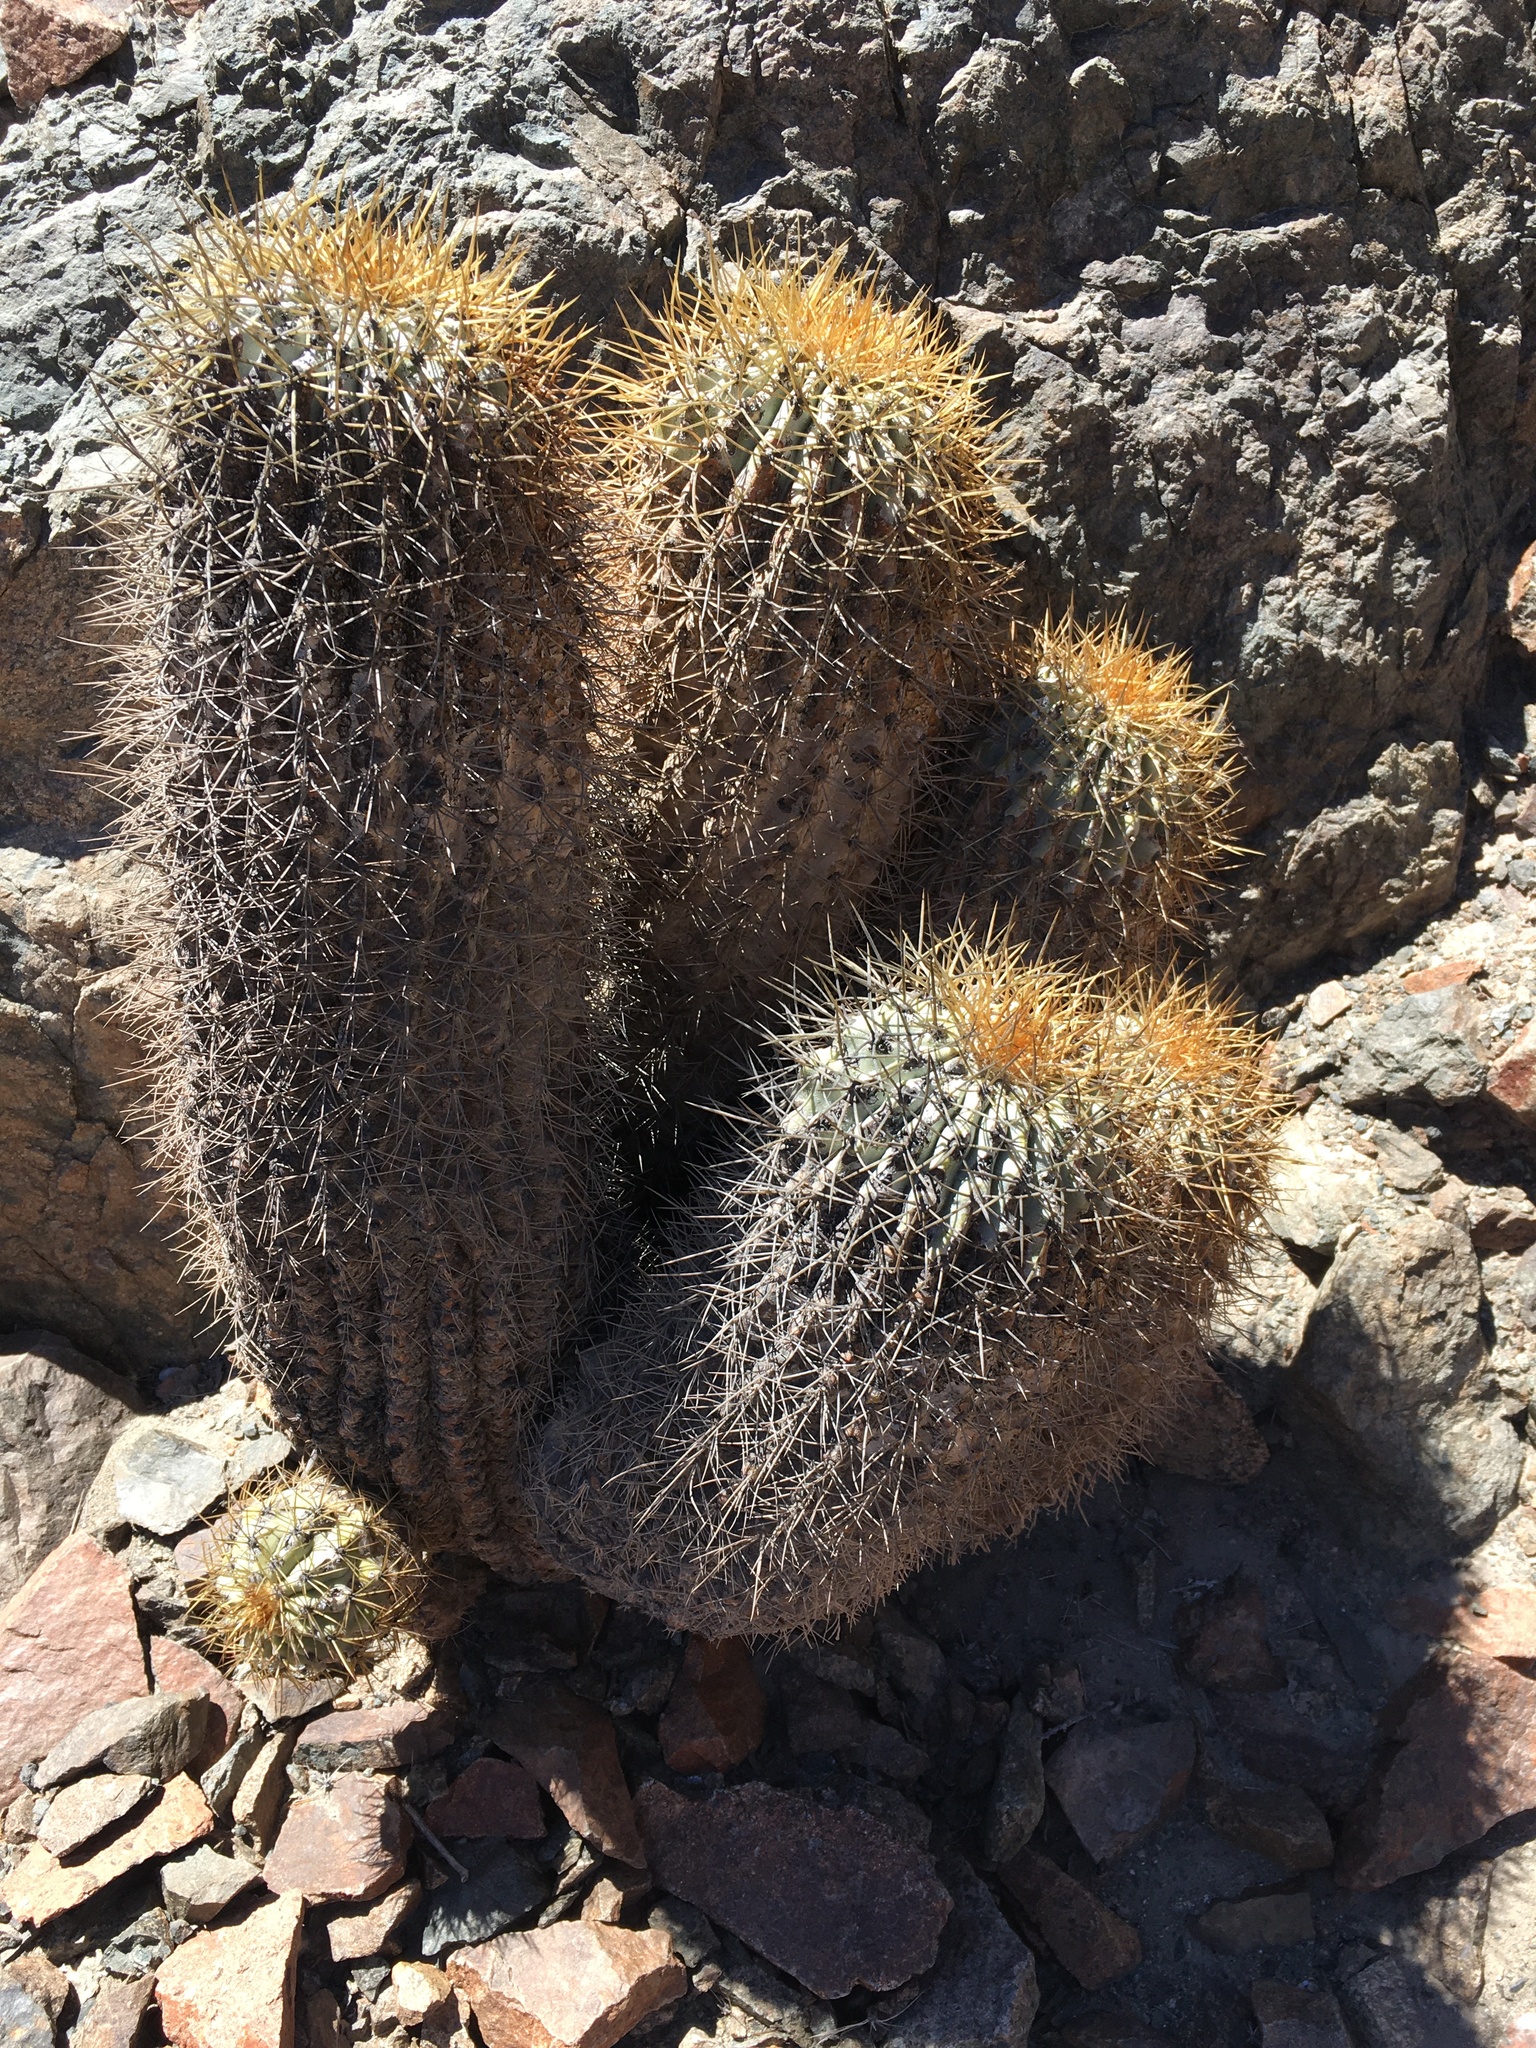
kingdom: Plantae
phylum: Tracheophyta
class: Magnoliopsida
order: Caryophyllales
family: Cactaceae
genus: Copiapoa
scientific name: Copiapoa gigantea
